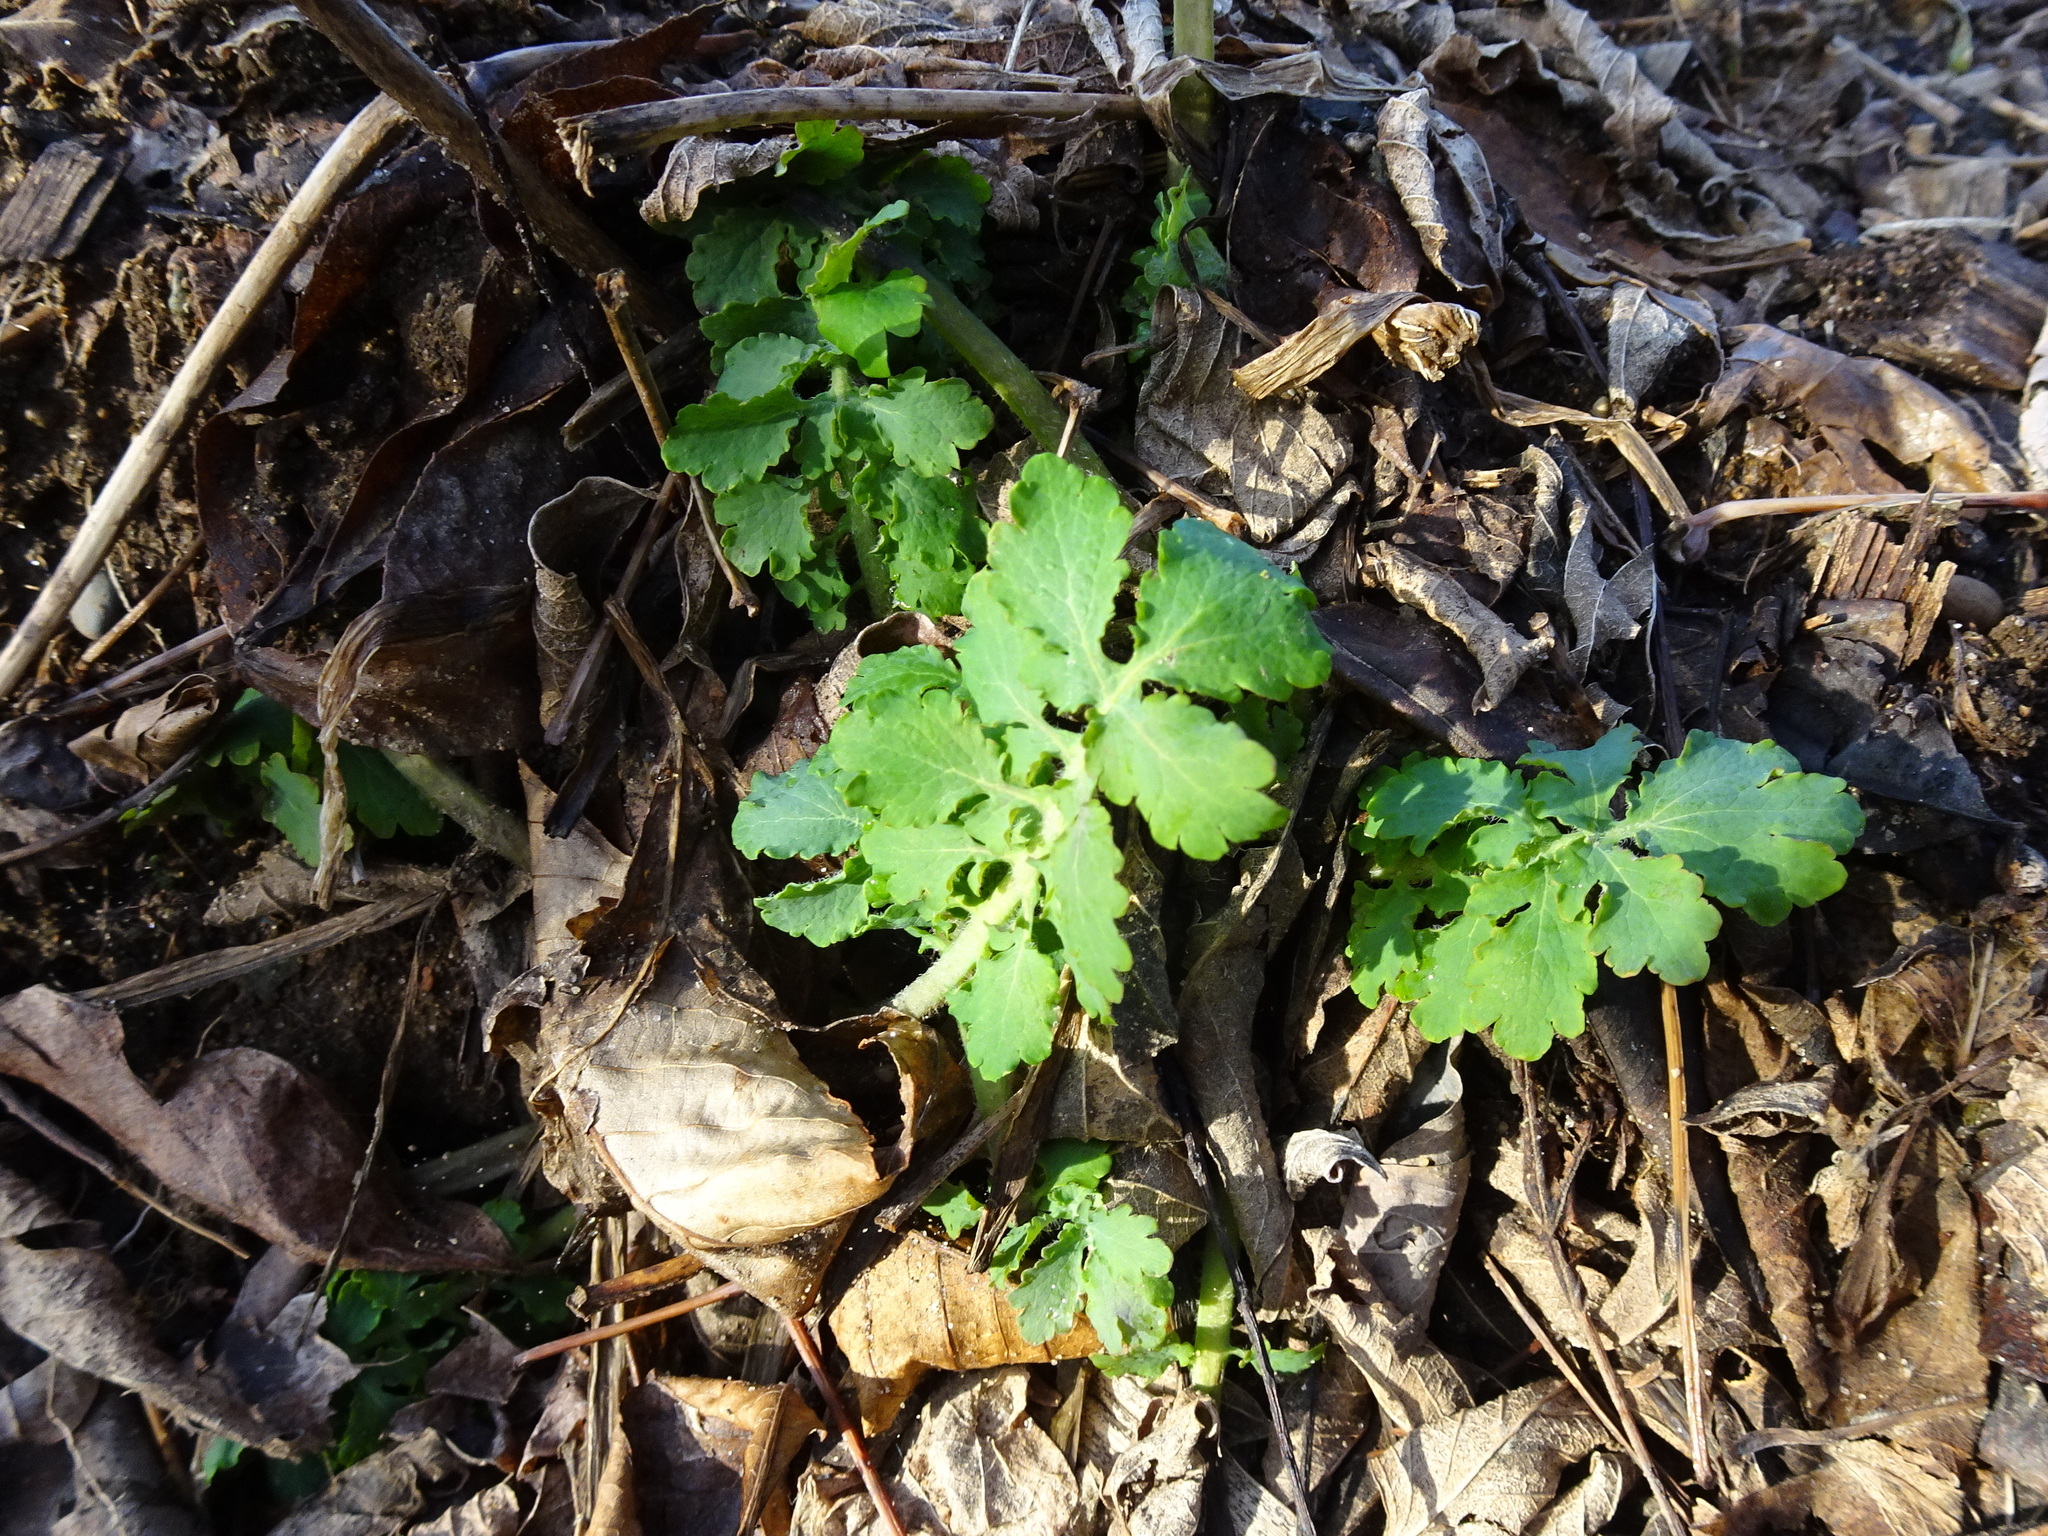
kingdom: Plantae
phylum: Tracheophyta
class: Magnoliopsida
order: Ranunculales
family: Papaveraceae
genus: Chelidonium
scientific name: Chelidonium majus
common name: Greater celandine
